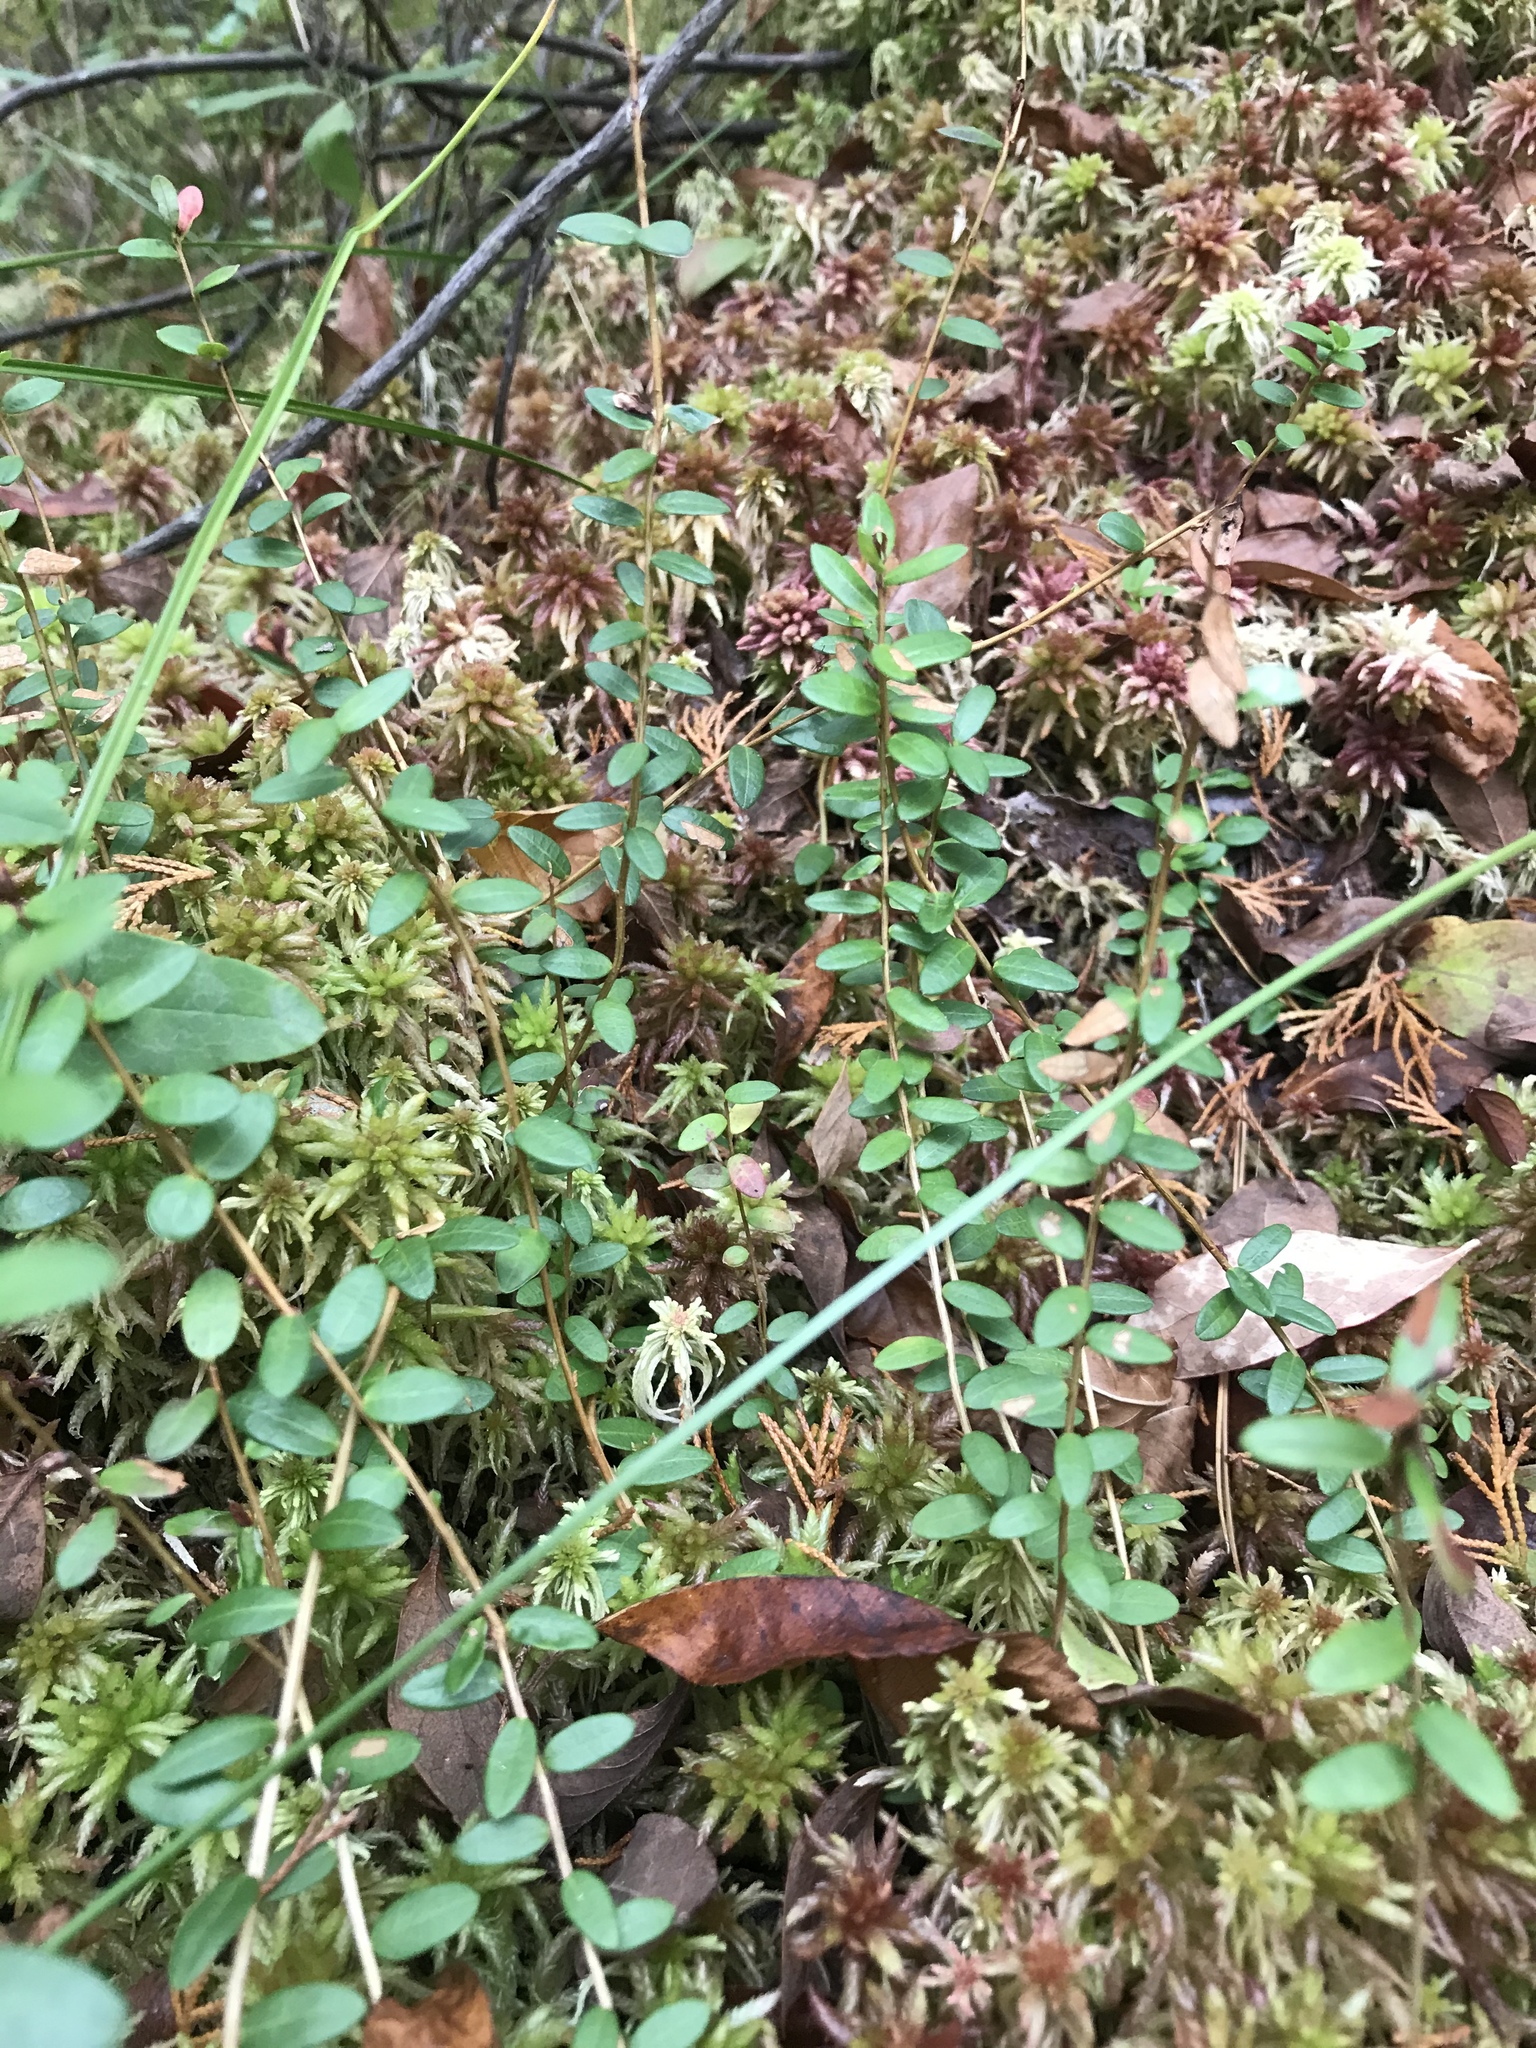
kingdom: Plantae
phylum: Tracheophyta
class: Magnoliopsida
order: Ericales
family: Ericaceae
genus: Vaccinium
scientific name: Vaccinium macrocarpon
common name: American cranberry
